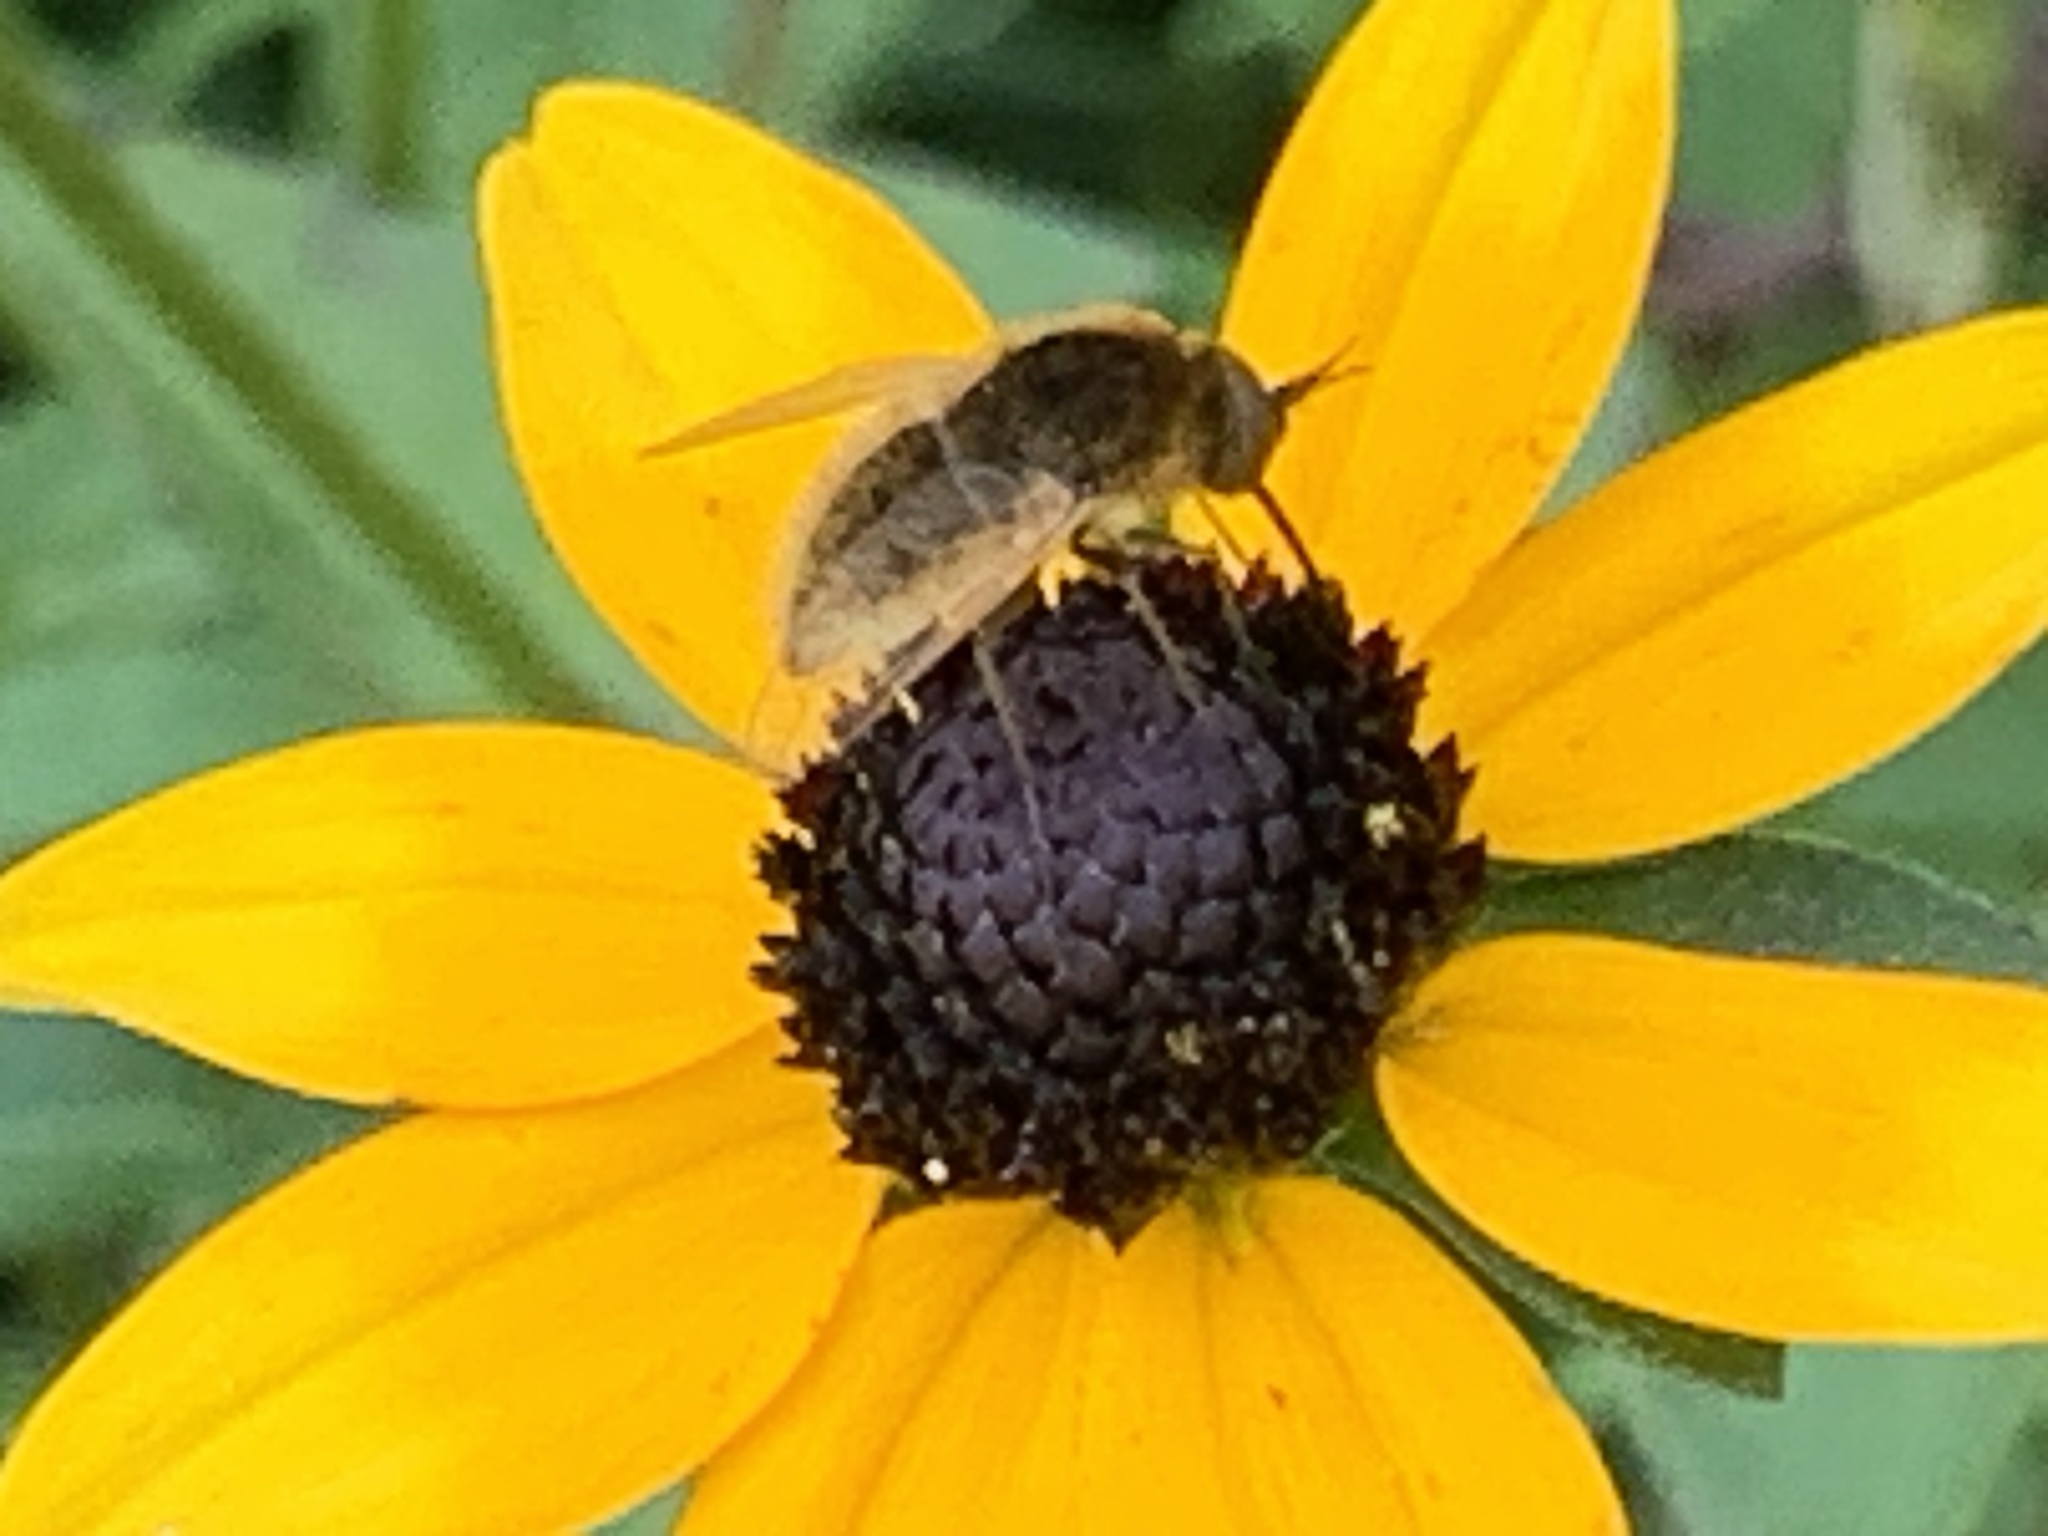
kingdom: Animalia
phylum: Arthropoda
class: Insecta
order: Diptera
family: Bombyliidae
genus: Sparnopolius
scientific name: Sparnopolius confusus
